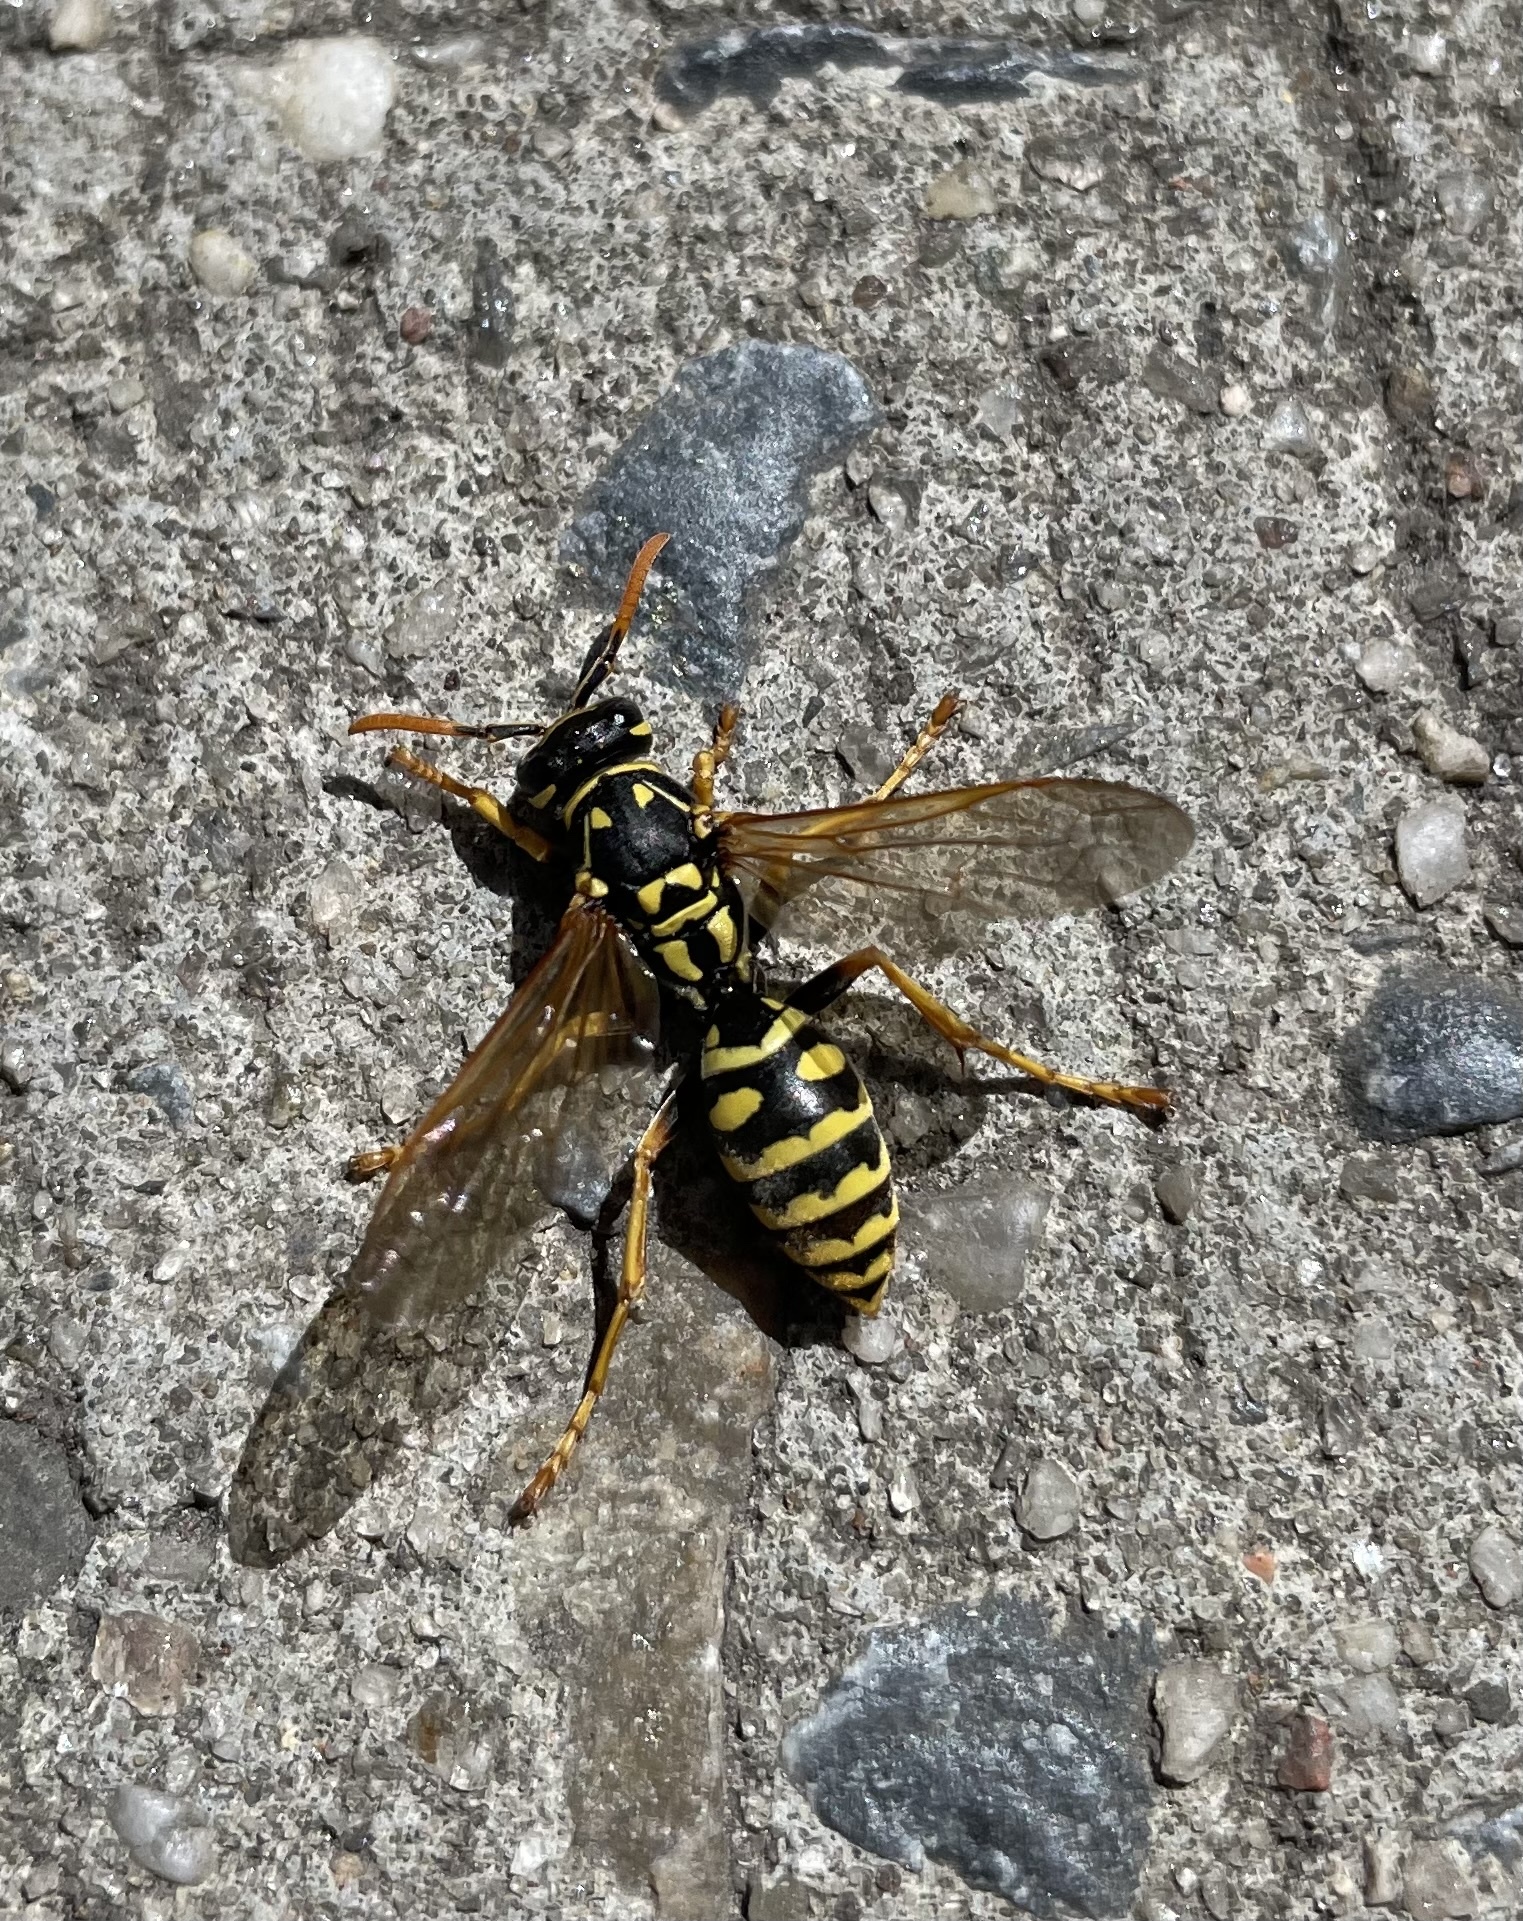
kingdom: Animalia
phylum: Arthropoda
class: Insecta
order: Hymenoptera
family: Eumenidae
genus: Polistes
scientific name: Polistes dominula
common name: Paper wasp
